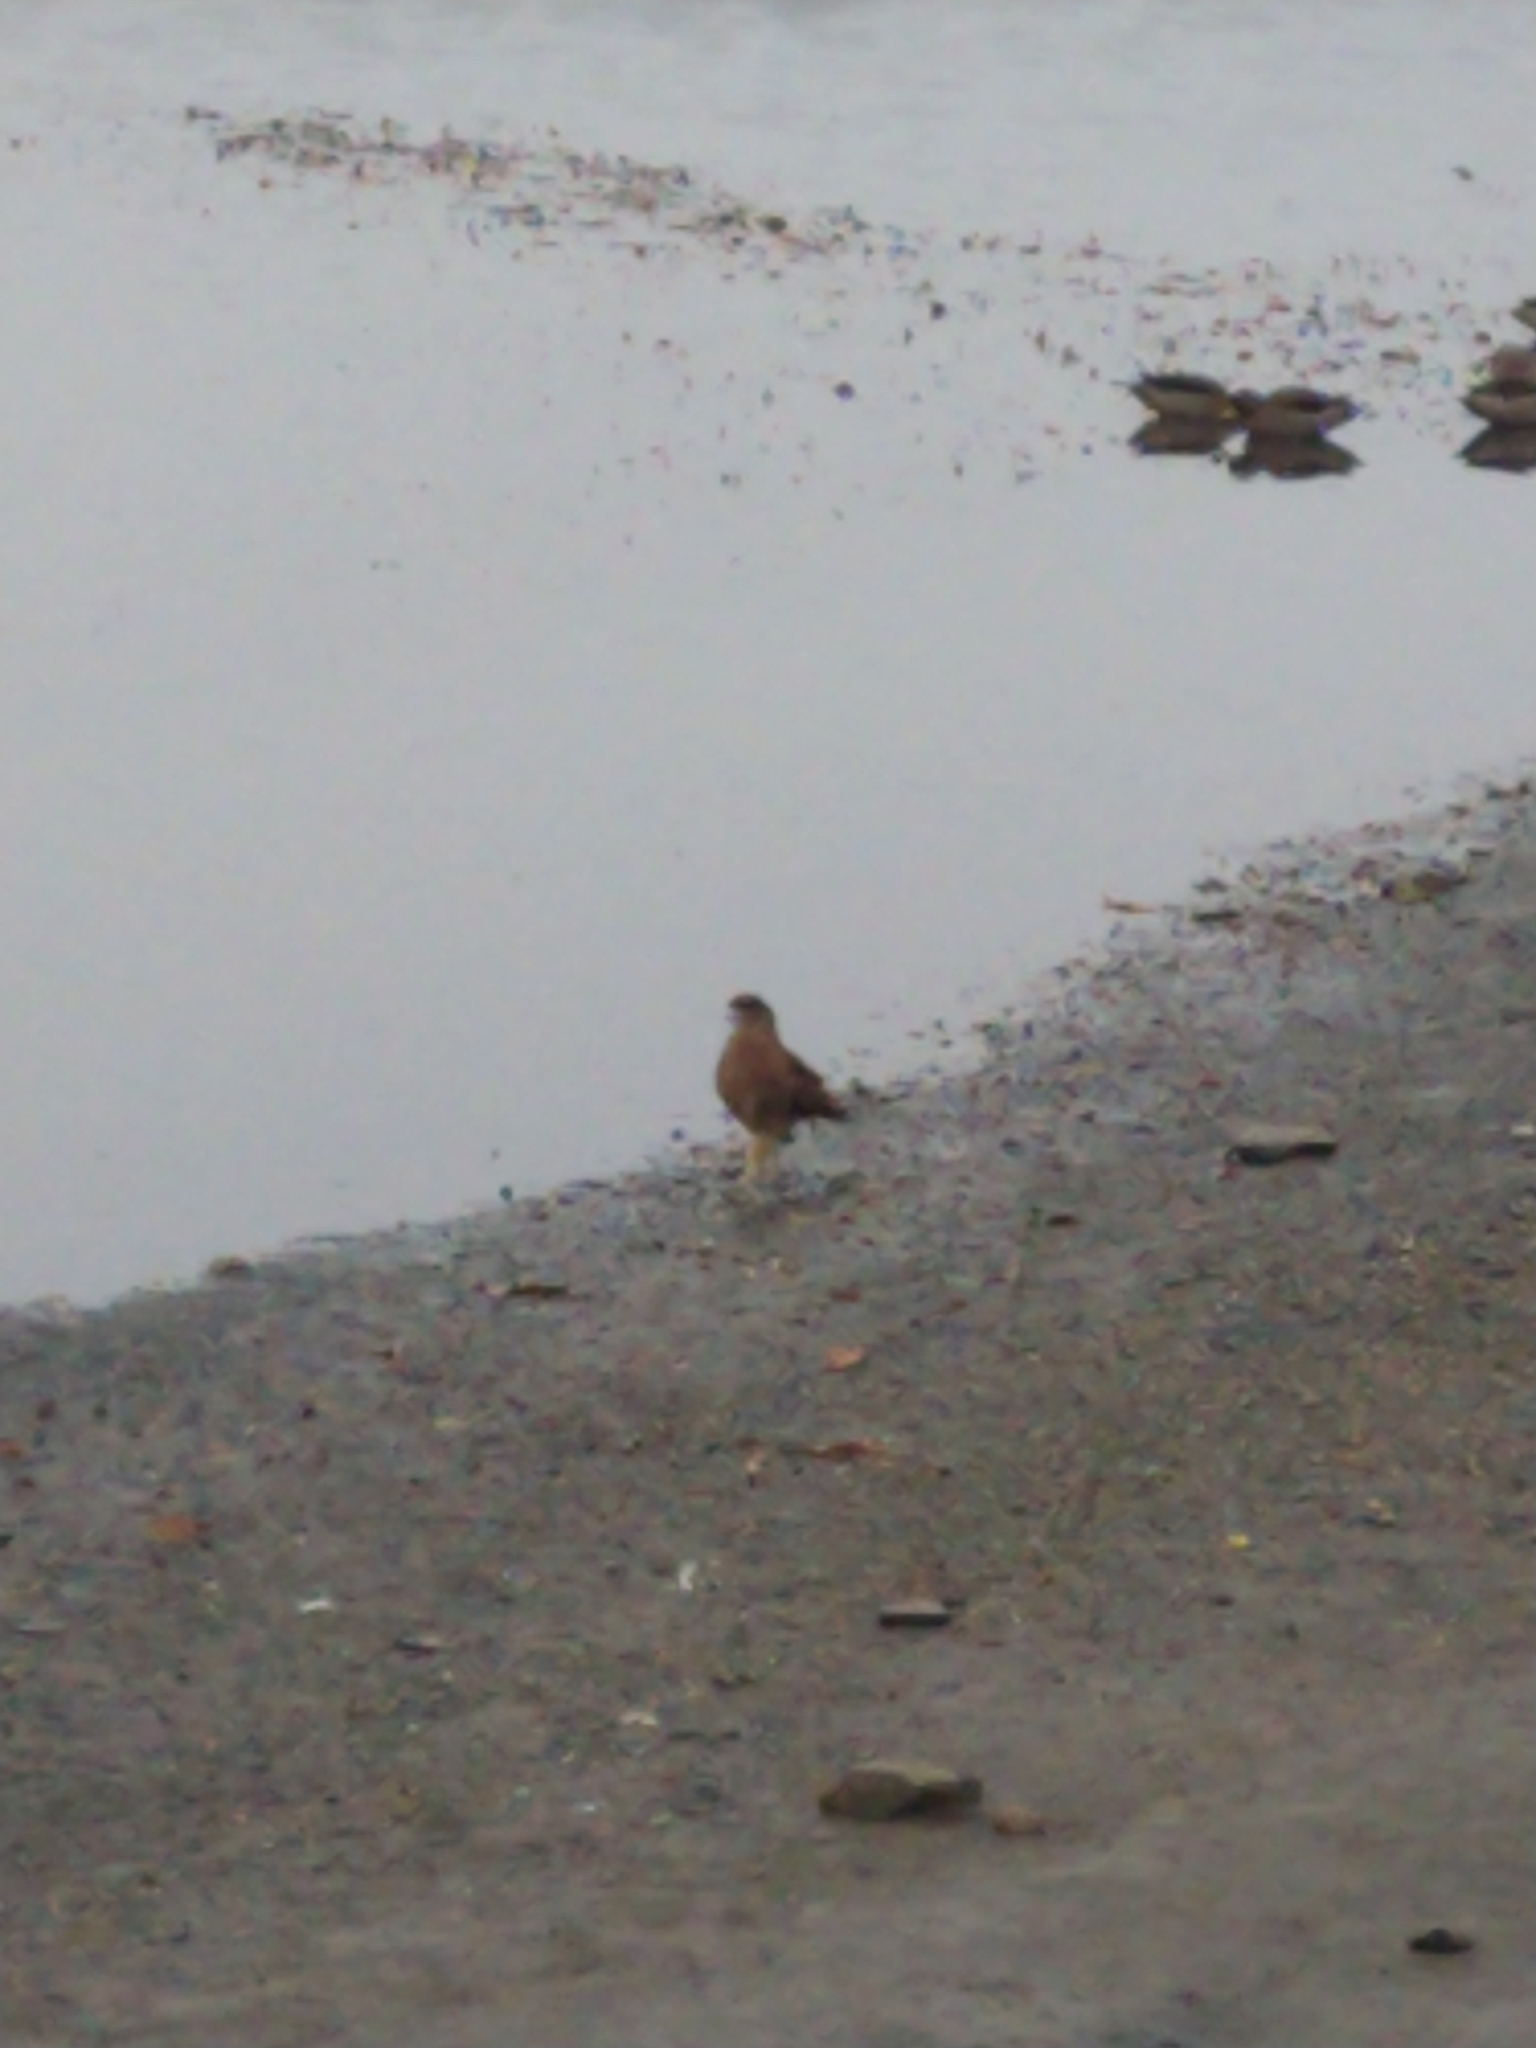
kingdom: Animalia
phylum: Chordata
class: Aves
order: Falconiformes
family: Falconidae
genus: Daptrius
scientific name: Daptrius
